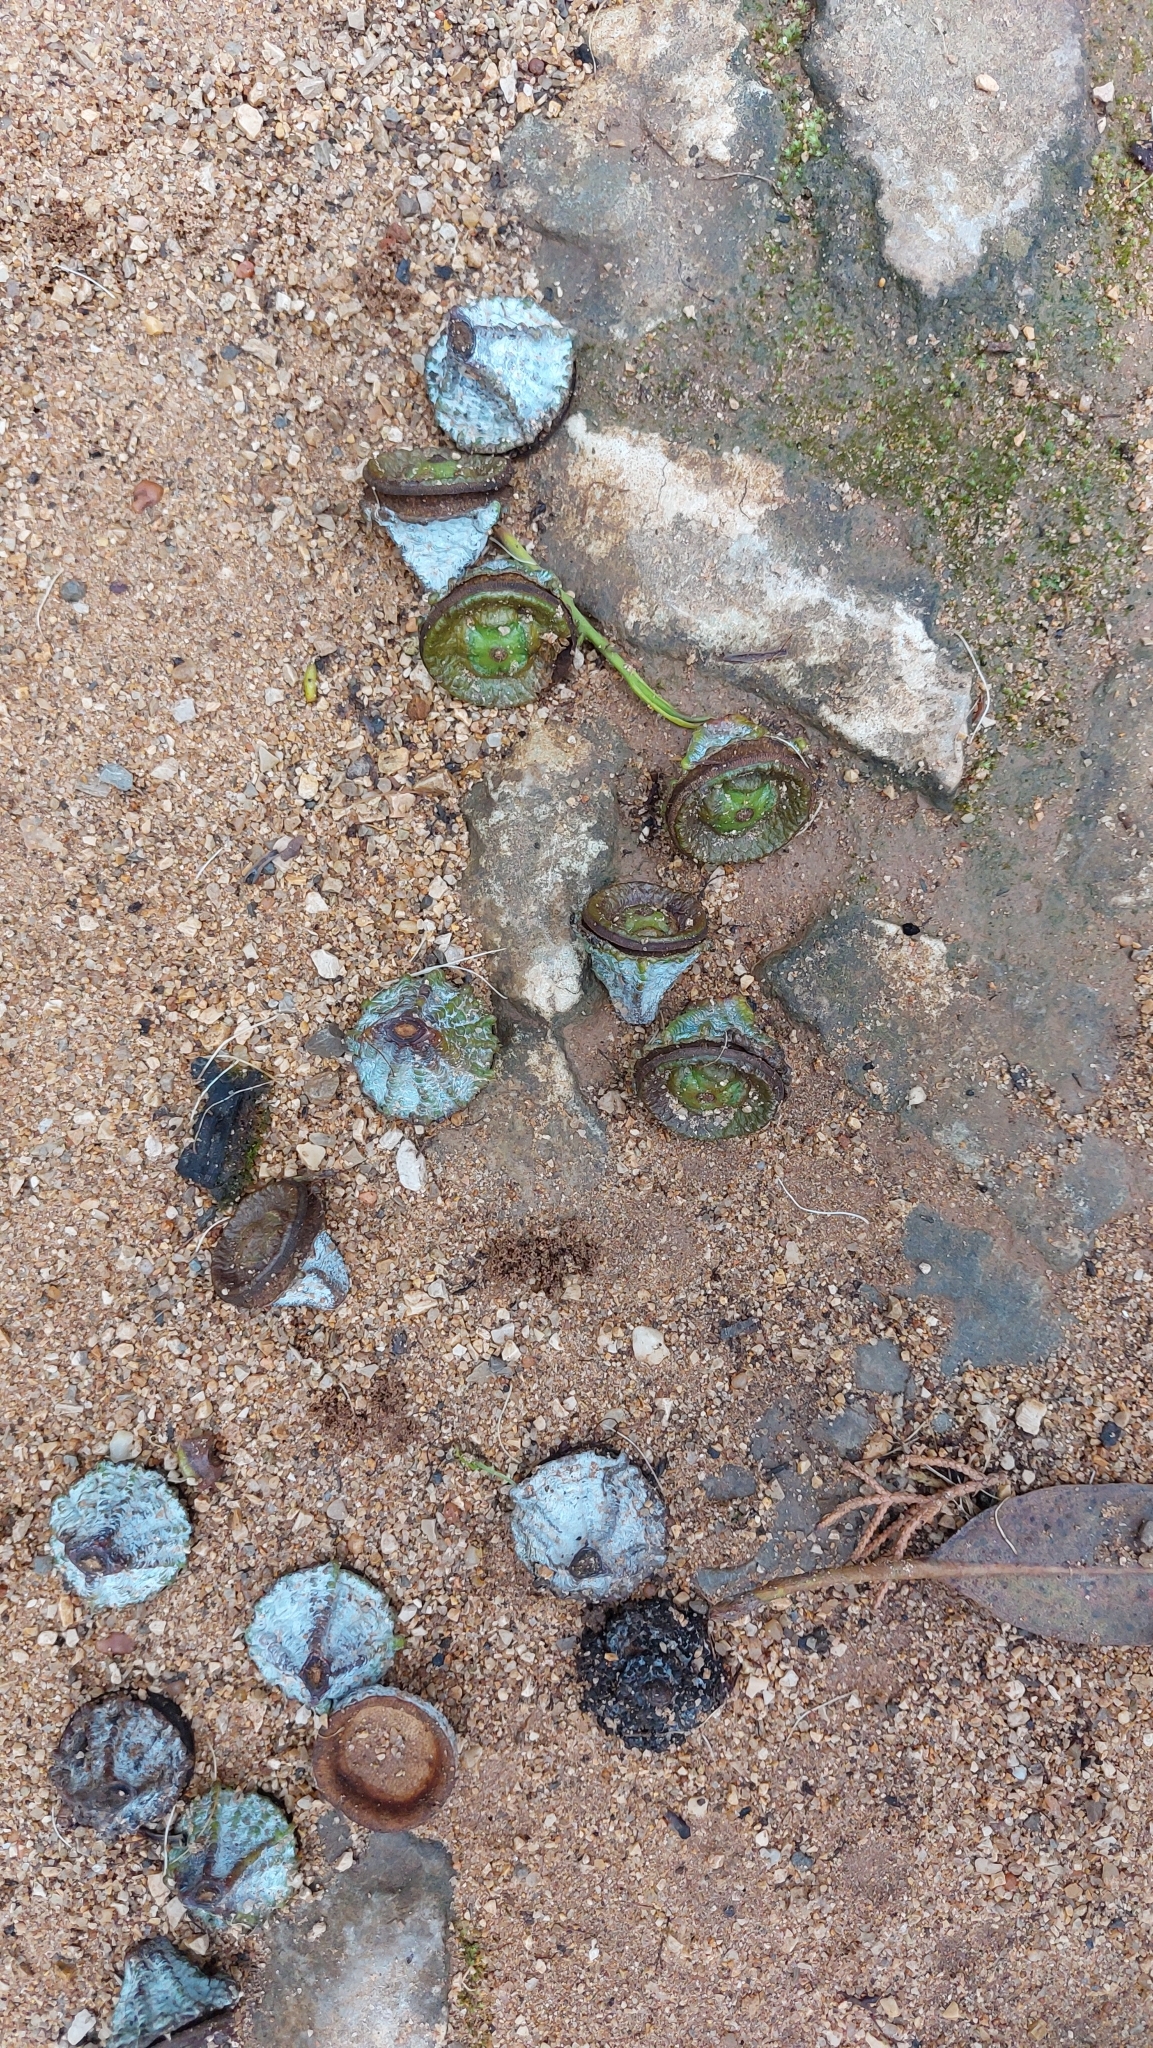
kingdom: Plantae
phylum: Tracheophyta
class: Magnoliopsida
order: Myrtales
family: Myrtaceae
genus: Eucalyptus
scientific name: Eucalyptus globulus
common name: Southern blue-gum
